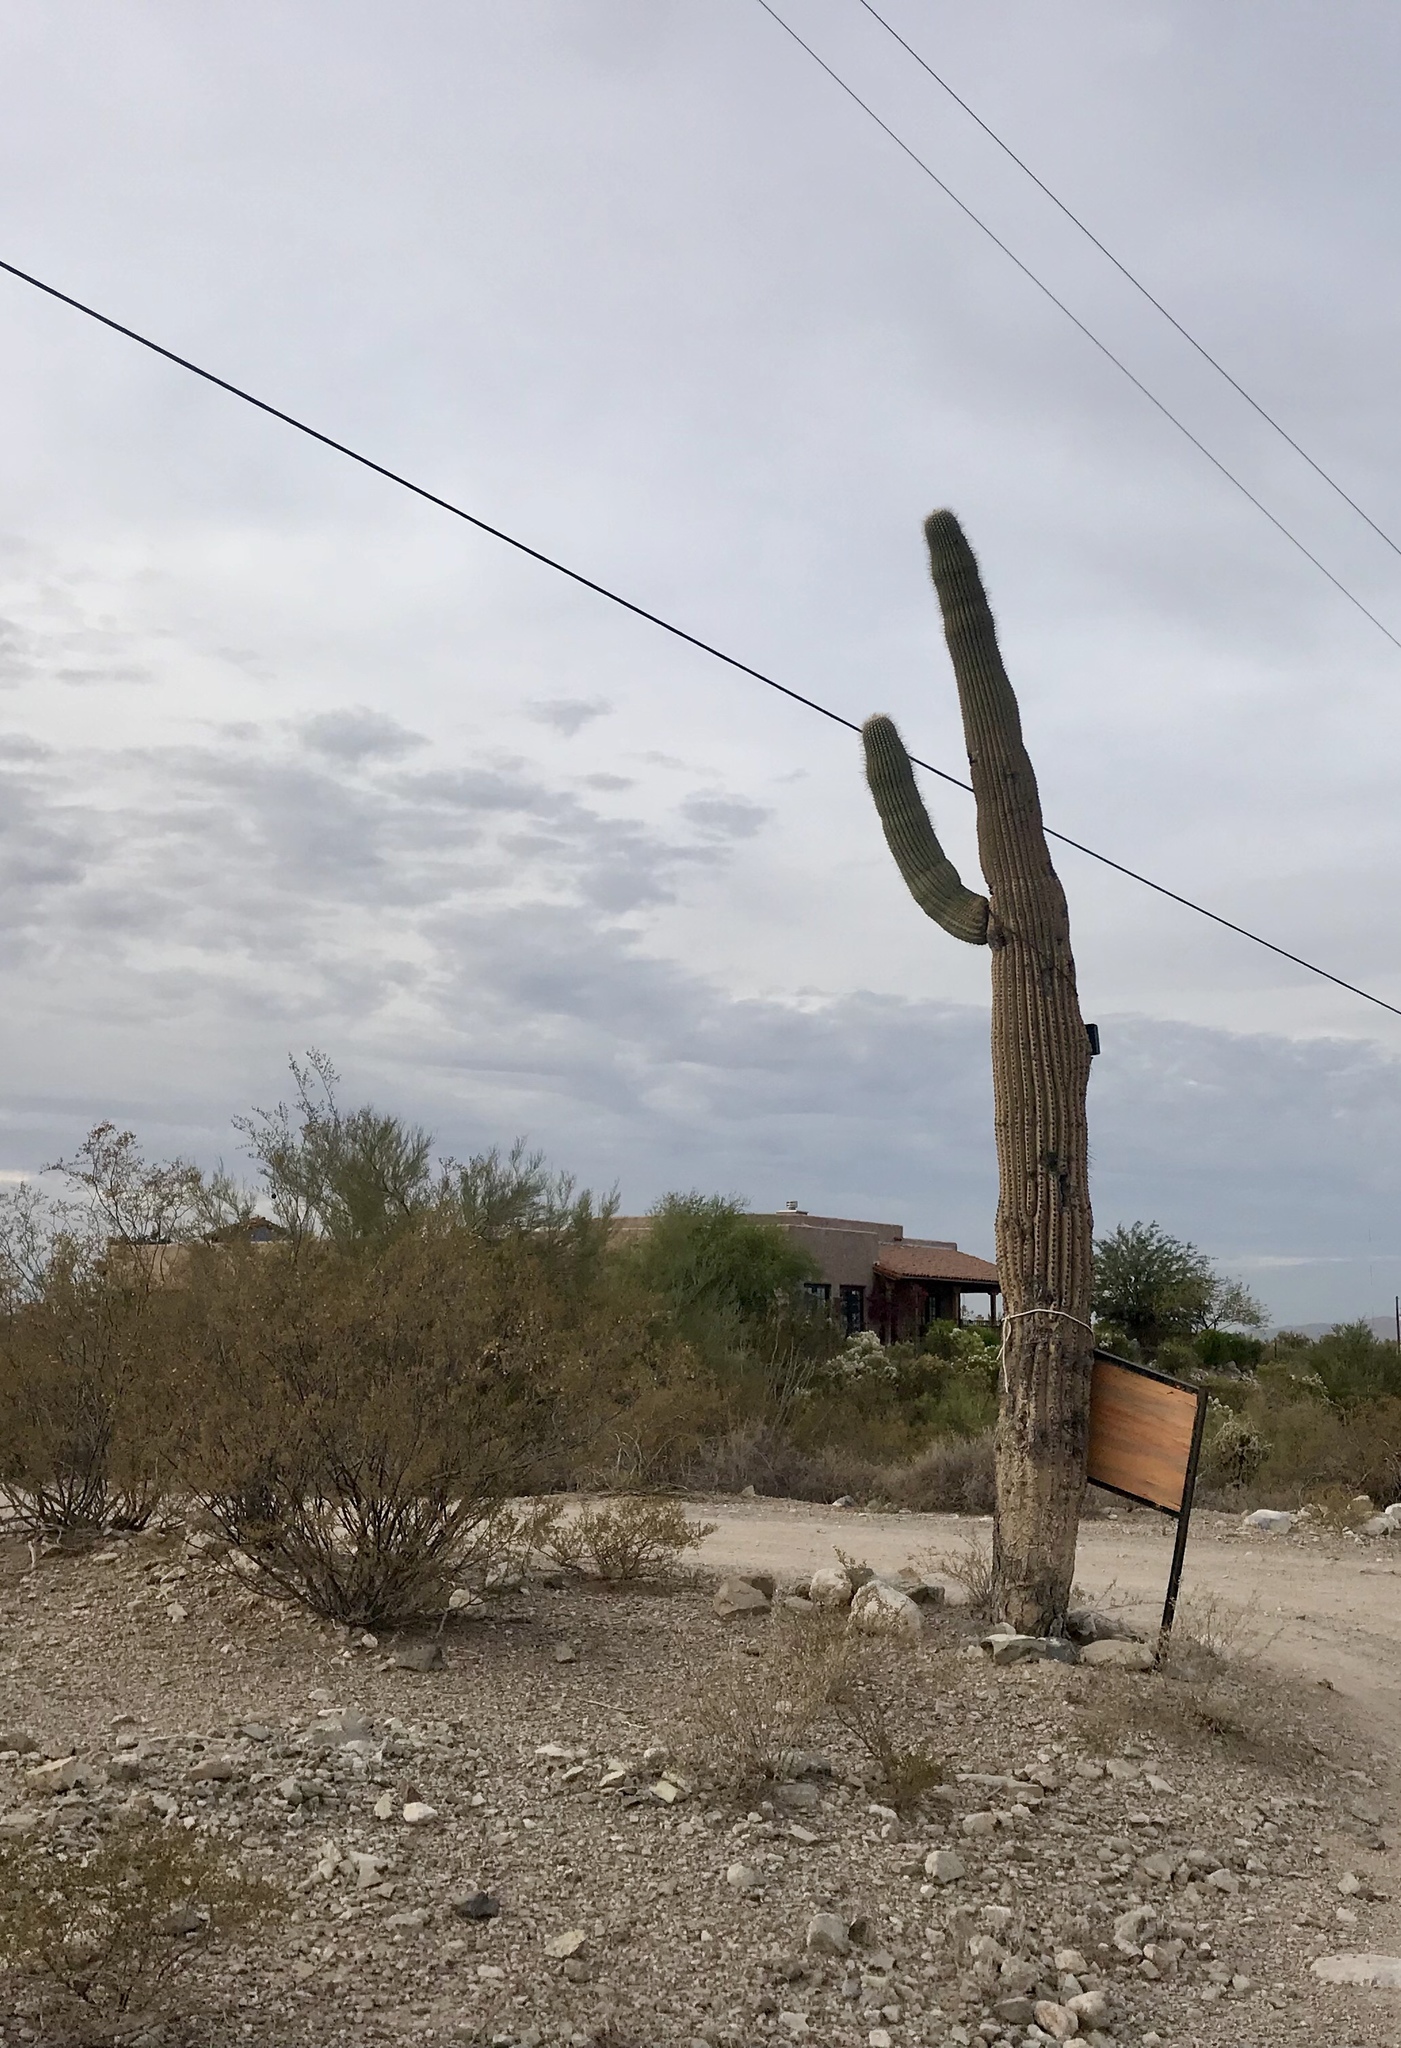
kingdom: Plantae
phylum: Tracheophyta
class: Magnoliopsida
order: Caryophyllales
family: Cactaceae
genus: Carnegiea
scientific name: Carnegiea gigantea
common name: Saguaro
